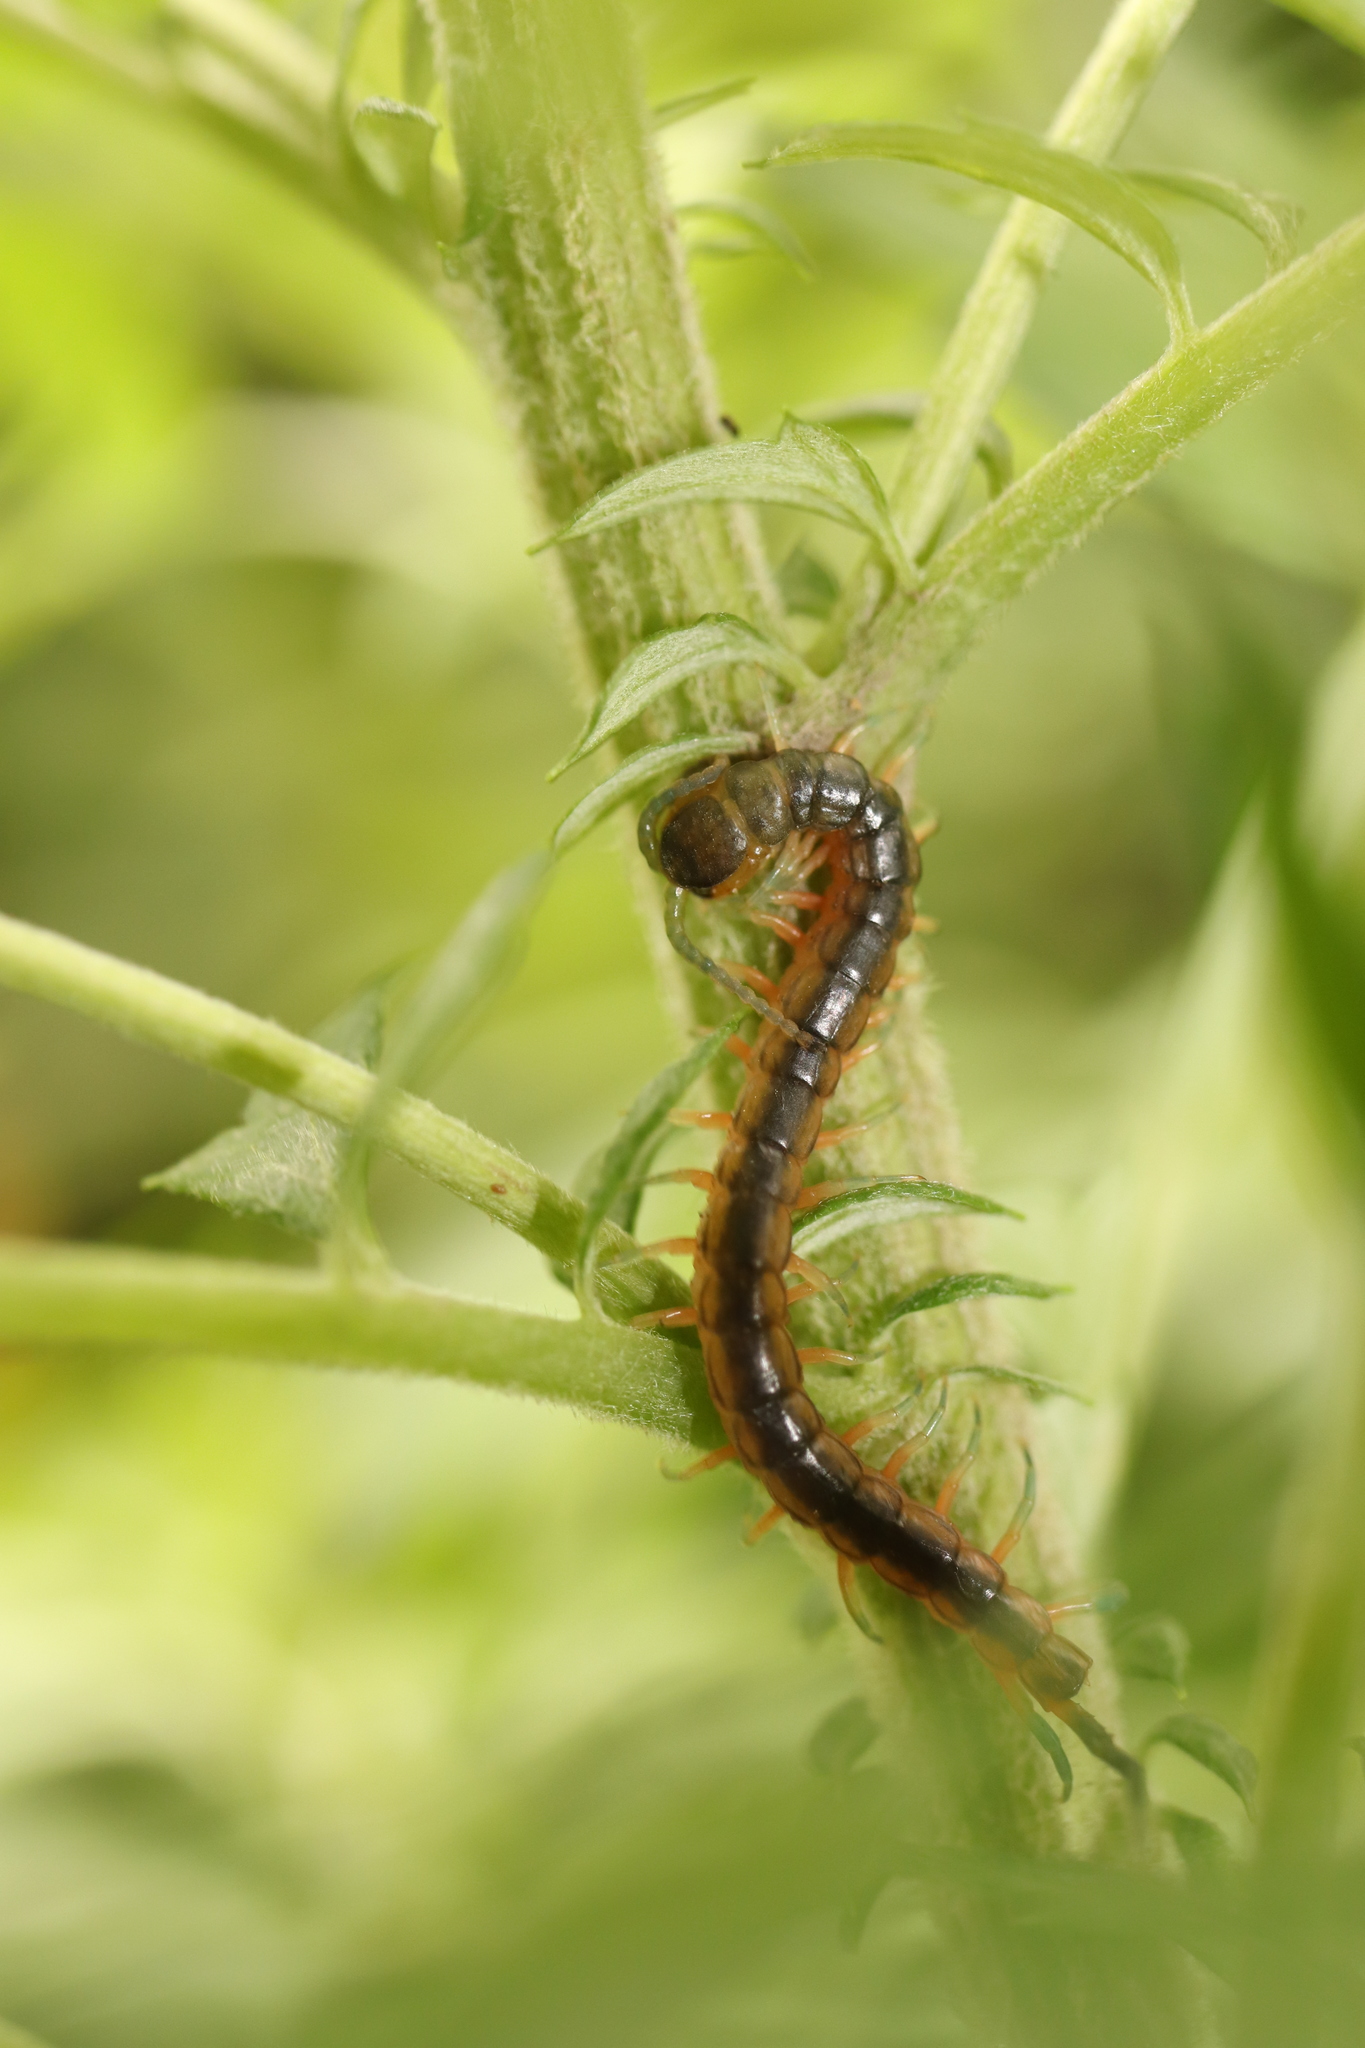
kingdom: Animalia
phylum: Arthropoda
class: Chilopoda
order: Scolopendromorpha
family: Scolopendridae
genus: Scolopendra
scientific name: Scolopendra japonica
